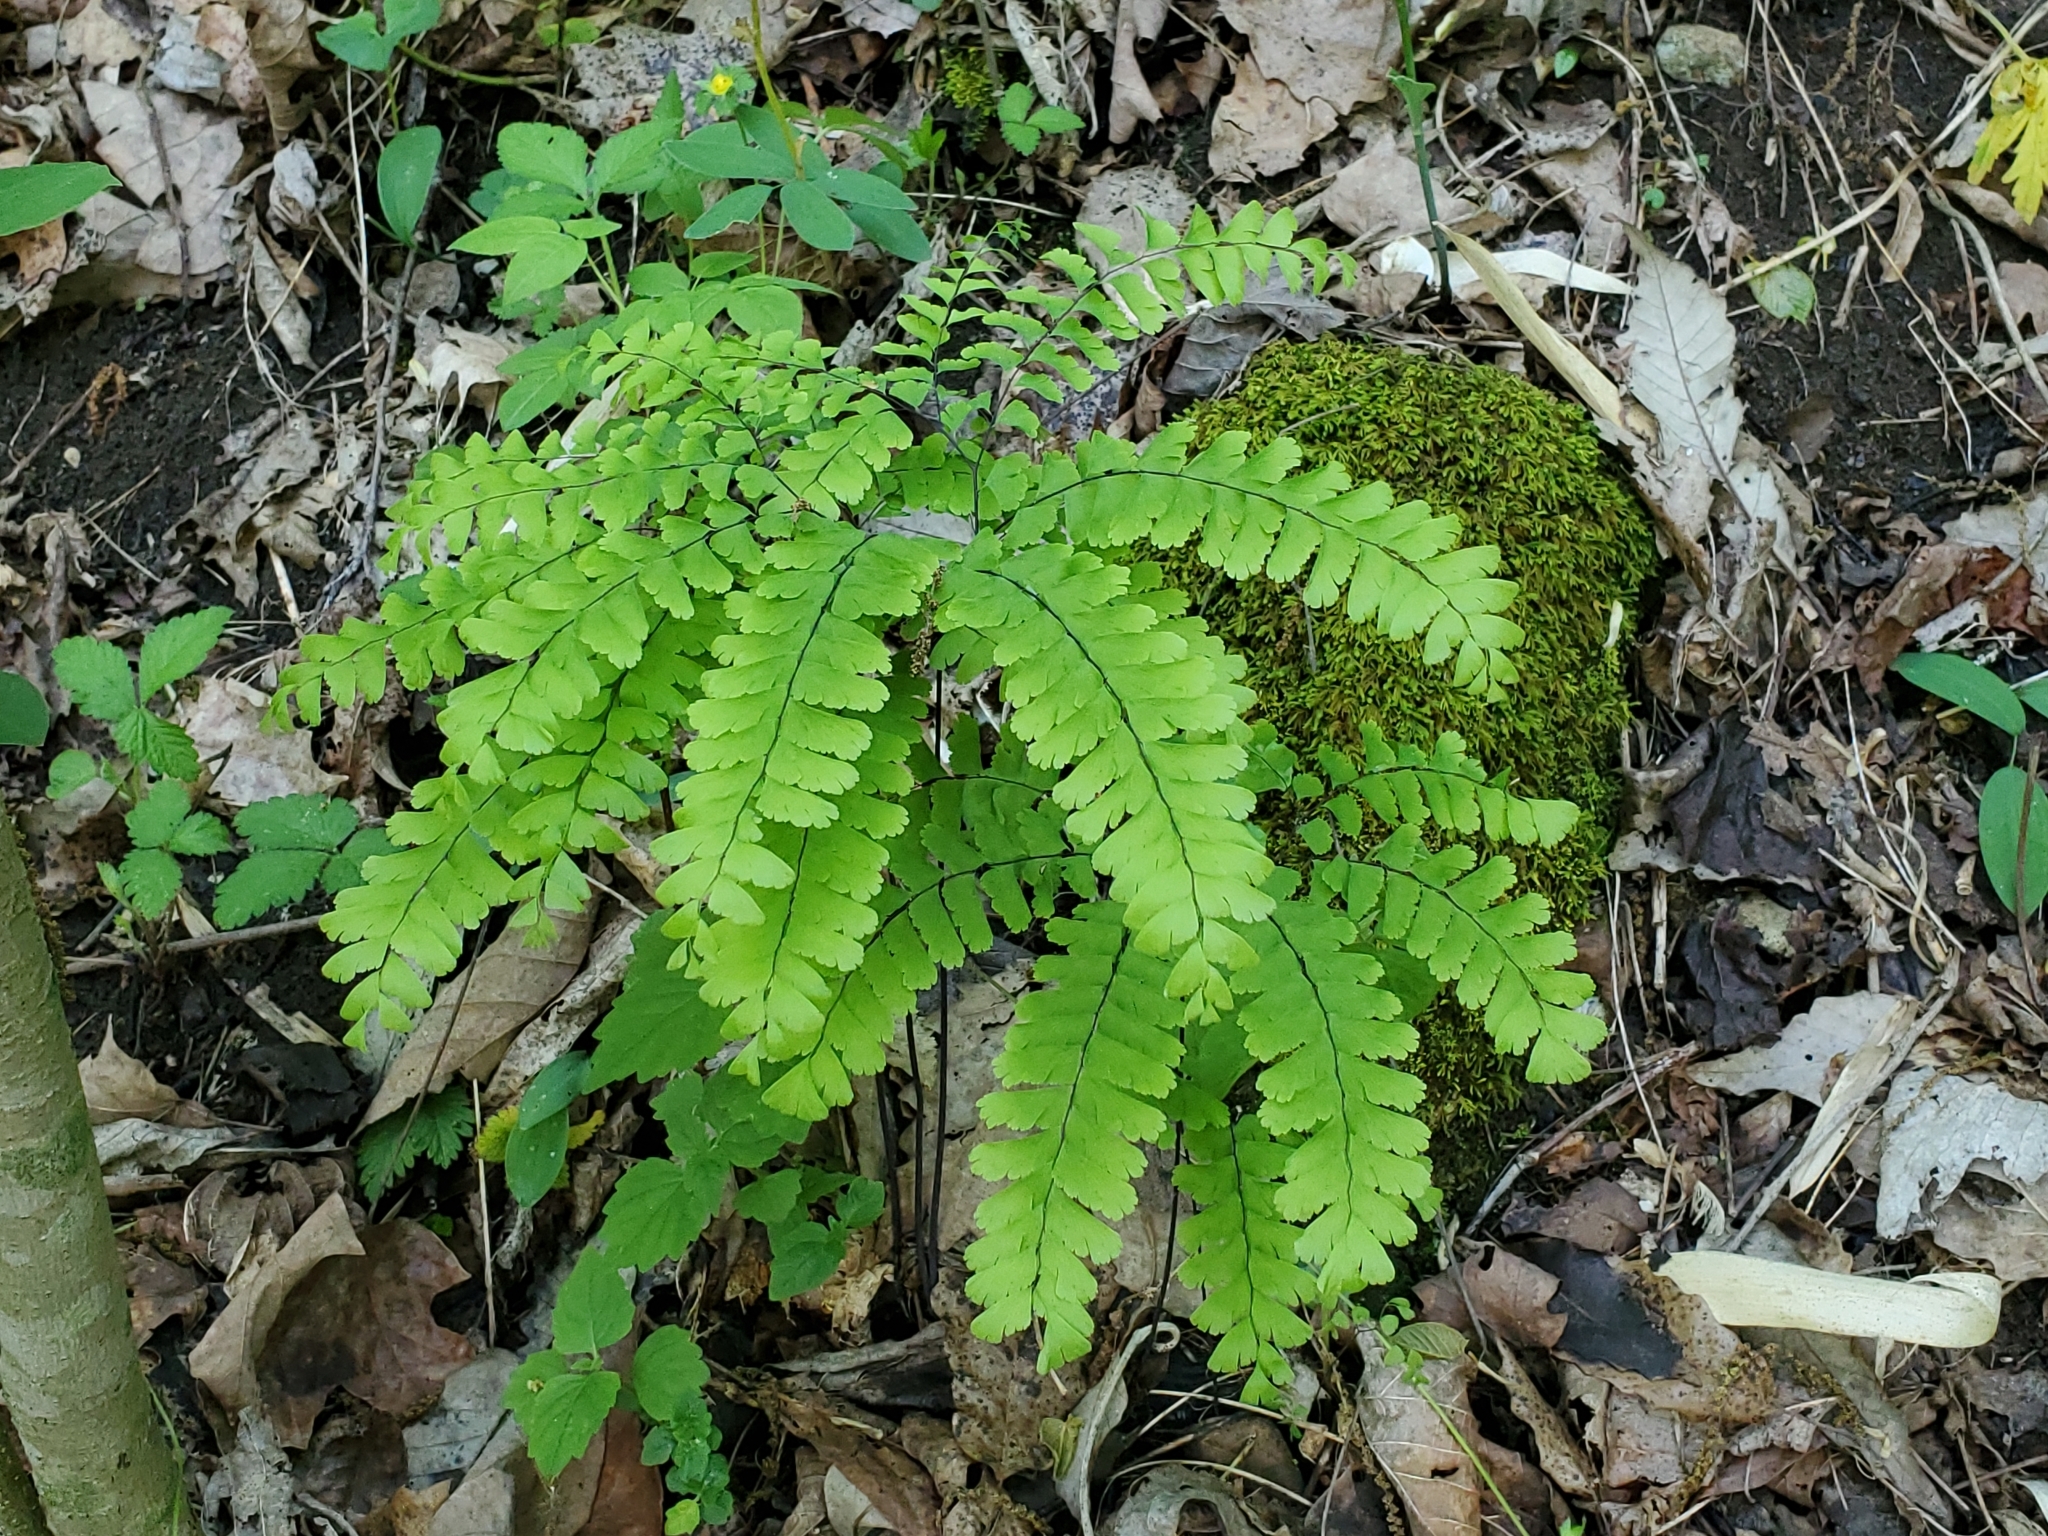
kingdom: Plantae
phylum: Tracheophyta
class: Polypodiopsida
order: Polypodiales
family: Pteridaceae
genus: Adiantum
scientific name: Adiantum pedatum
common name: Five-finger fern
